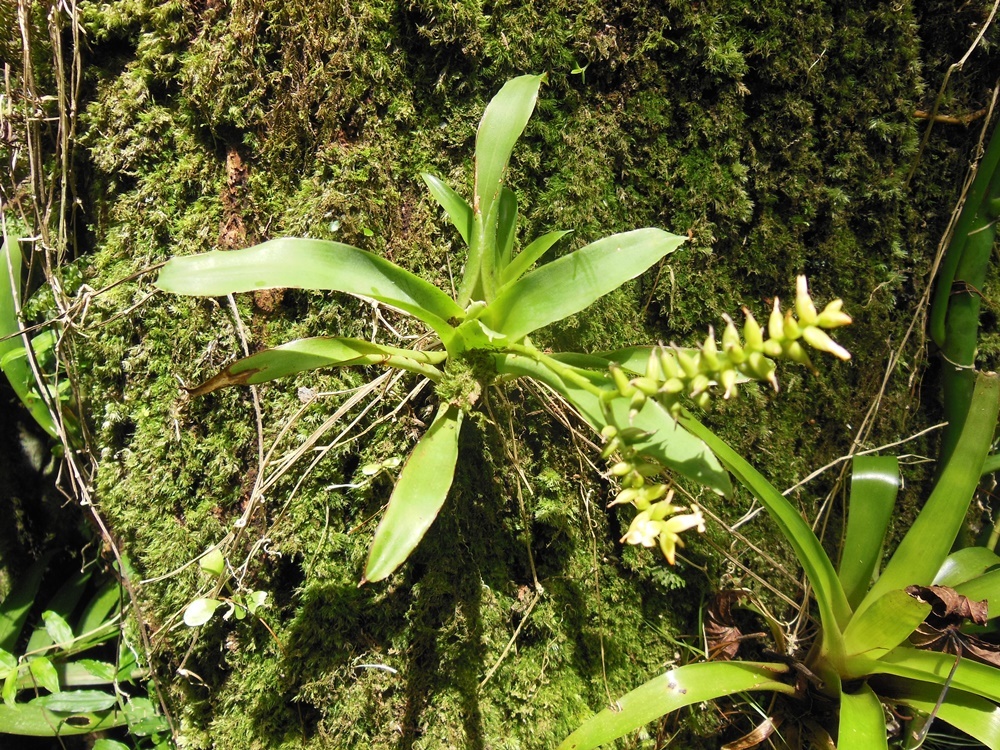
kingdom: Plantae
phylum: Tracheophyta
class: Liliopsida
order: Poales
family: Bromeliaceae
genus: Catopsis
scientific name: Catopsis nutans
